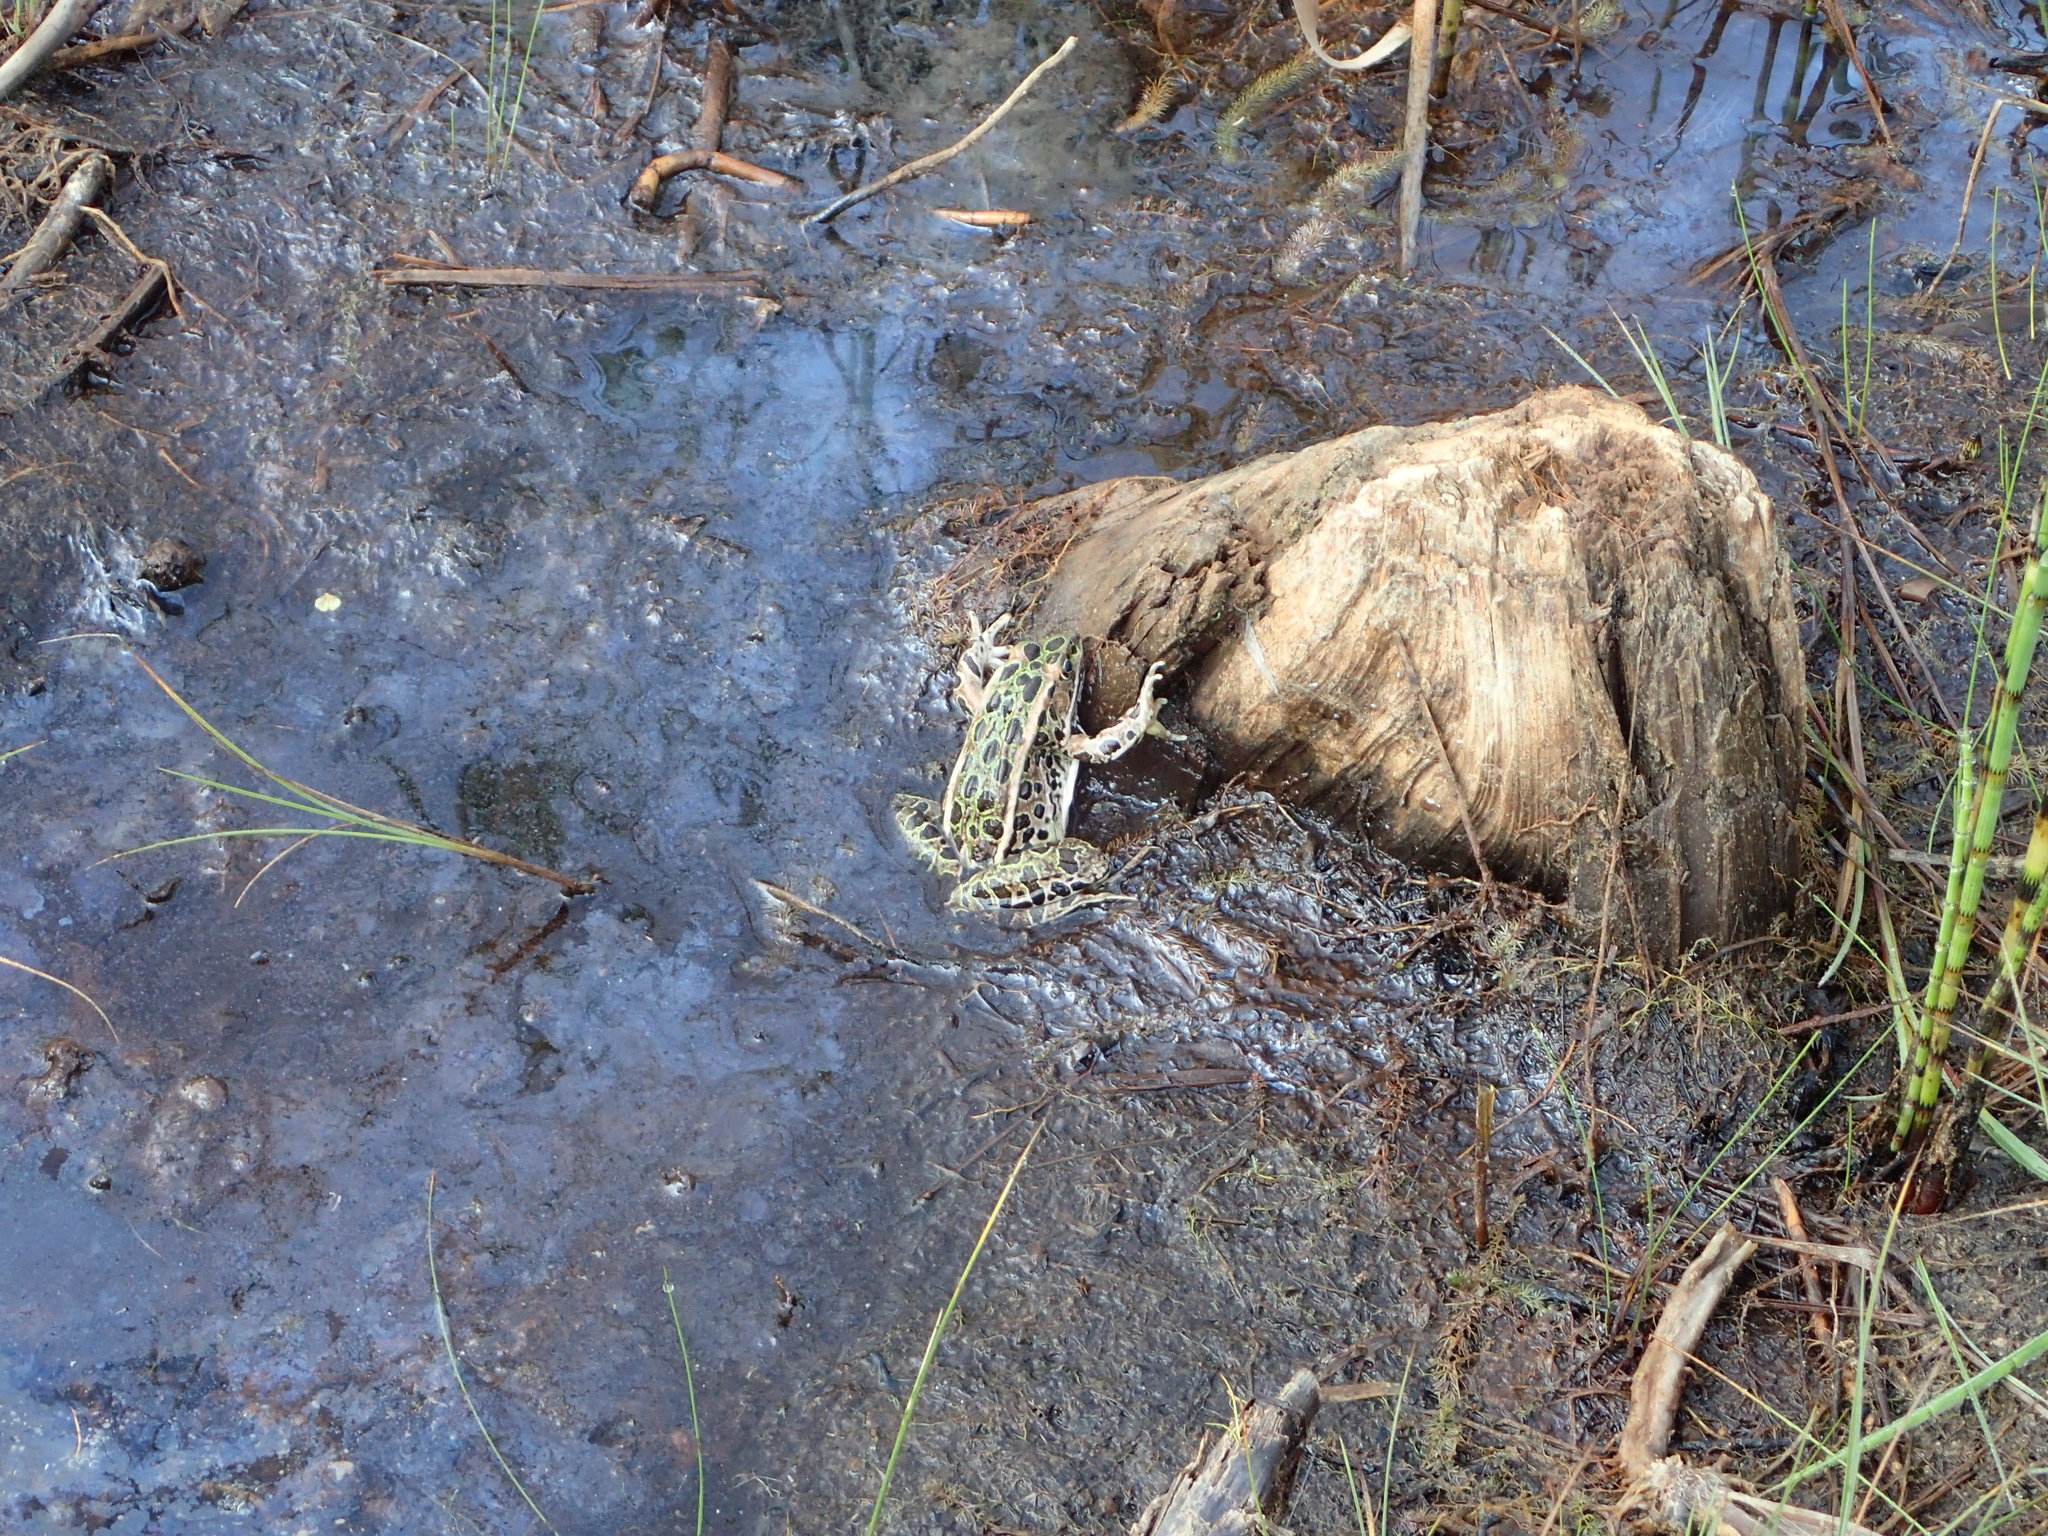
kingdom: Animalia
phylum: Chordata
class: Amphibia
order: Anura
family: Ranidae
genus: Lithobates
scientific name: Lithobates pipiens
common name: Northern leopard frog
